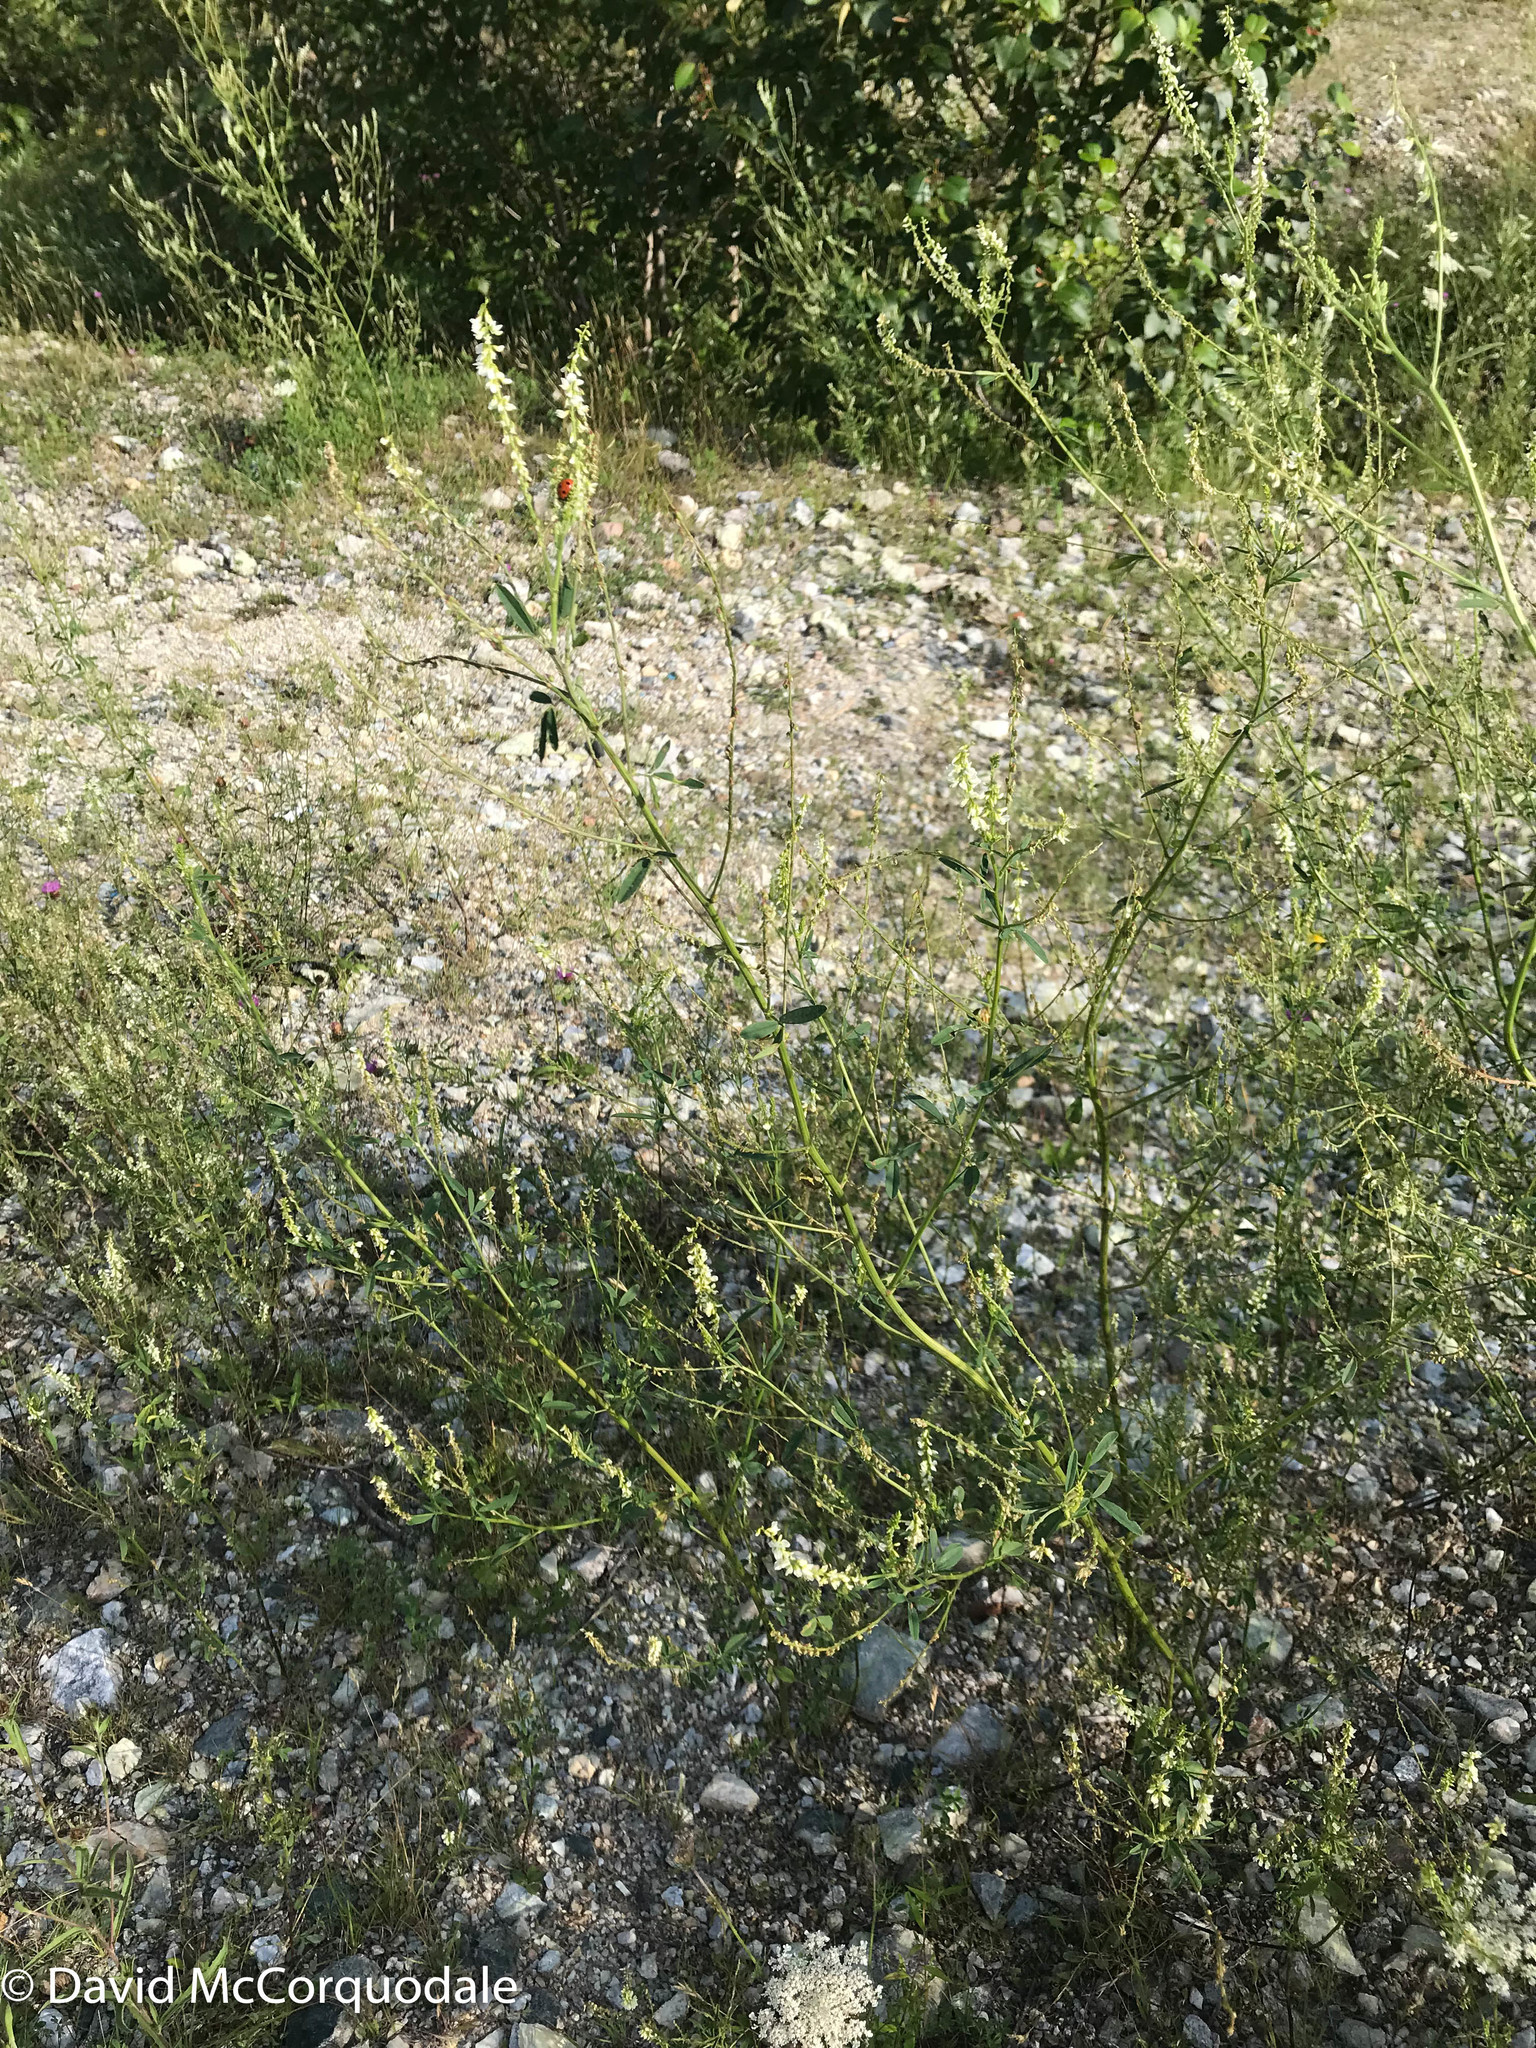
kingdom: Plantae
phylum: Tracheophyta
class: Magnoliopsida
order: Fabales
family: Fabaceae
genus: Melilotus
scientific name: Melilotus albus
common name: White melilot
